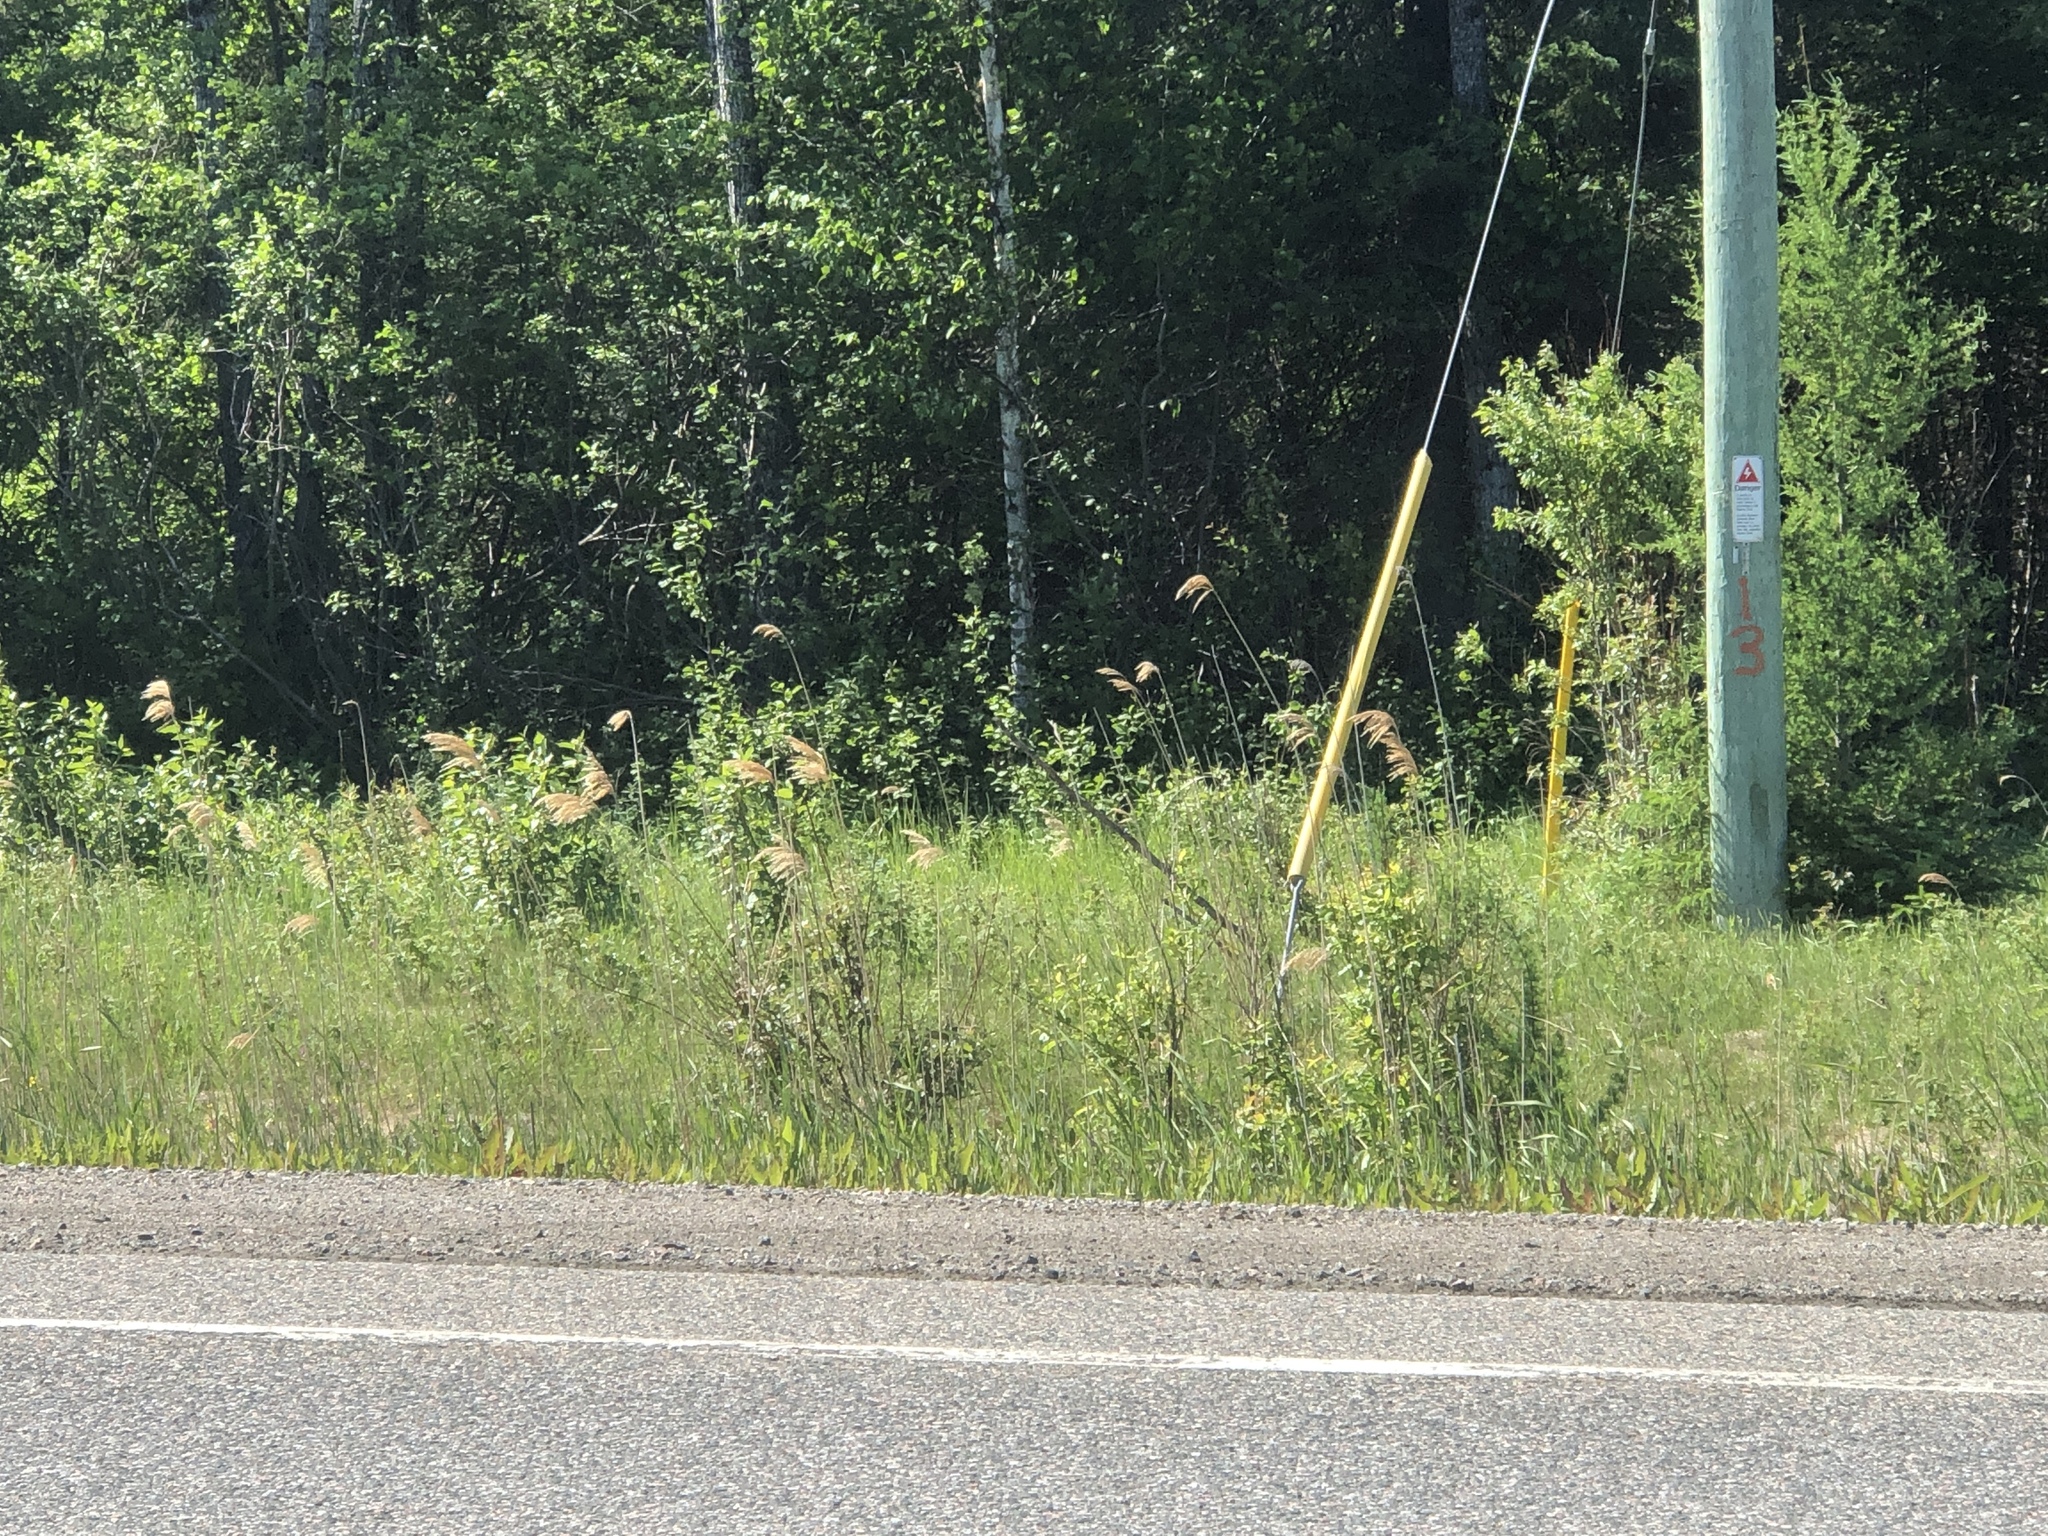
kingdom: Plantae
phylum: Tracheophyta
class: Liliopsida
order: Poales
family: Poaceae
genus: Phragmites
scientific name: Phragmites australis
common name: Common reed
